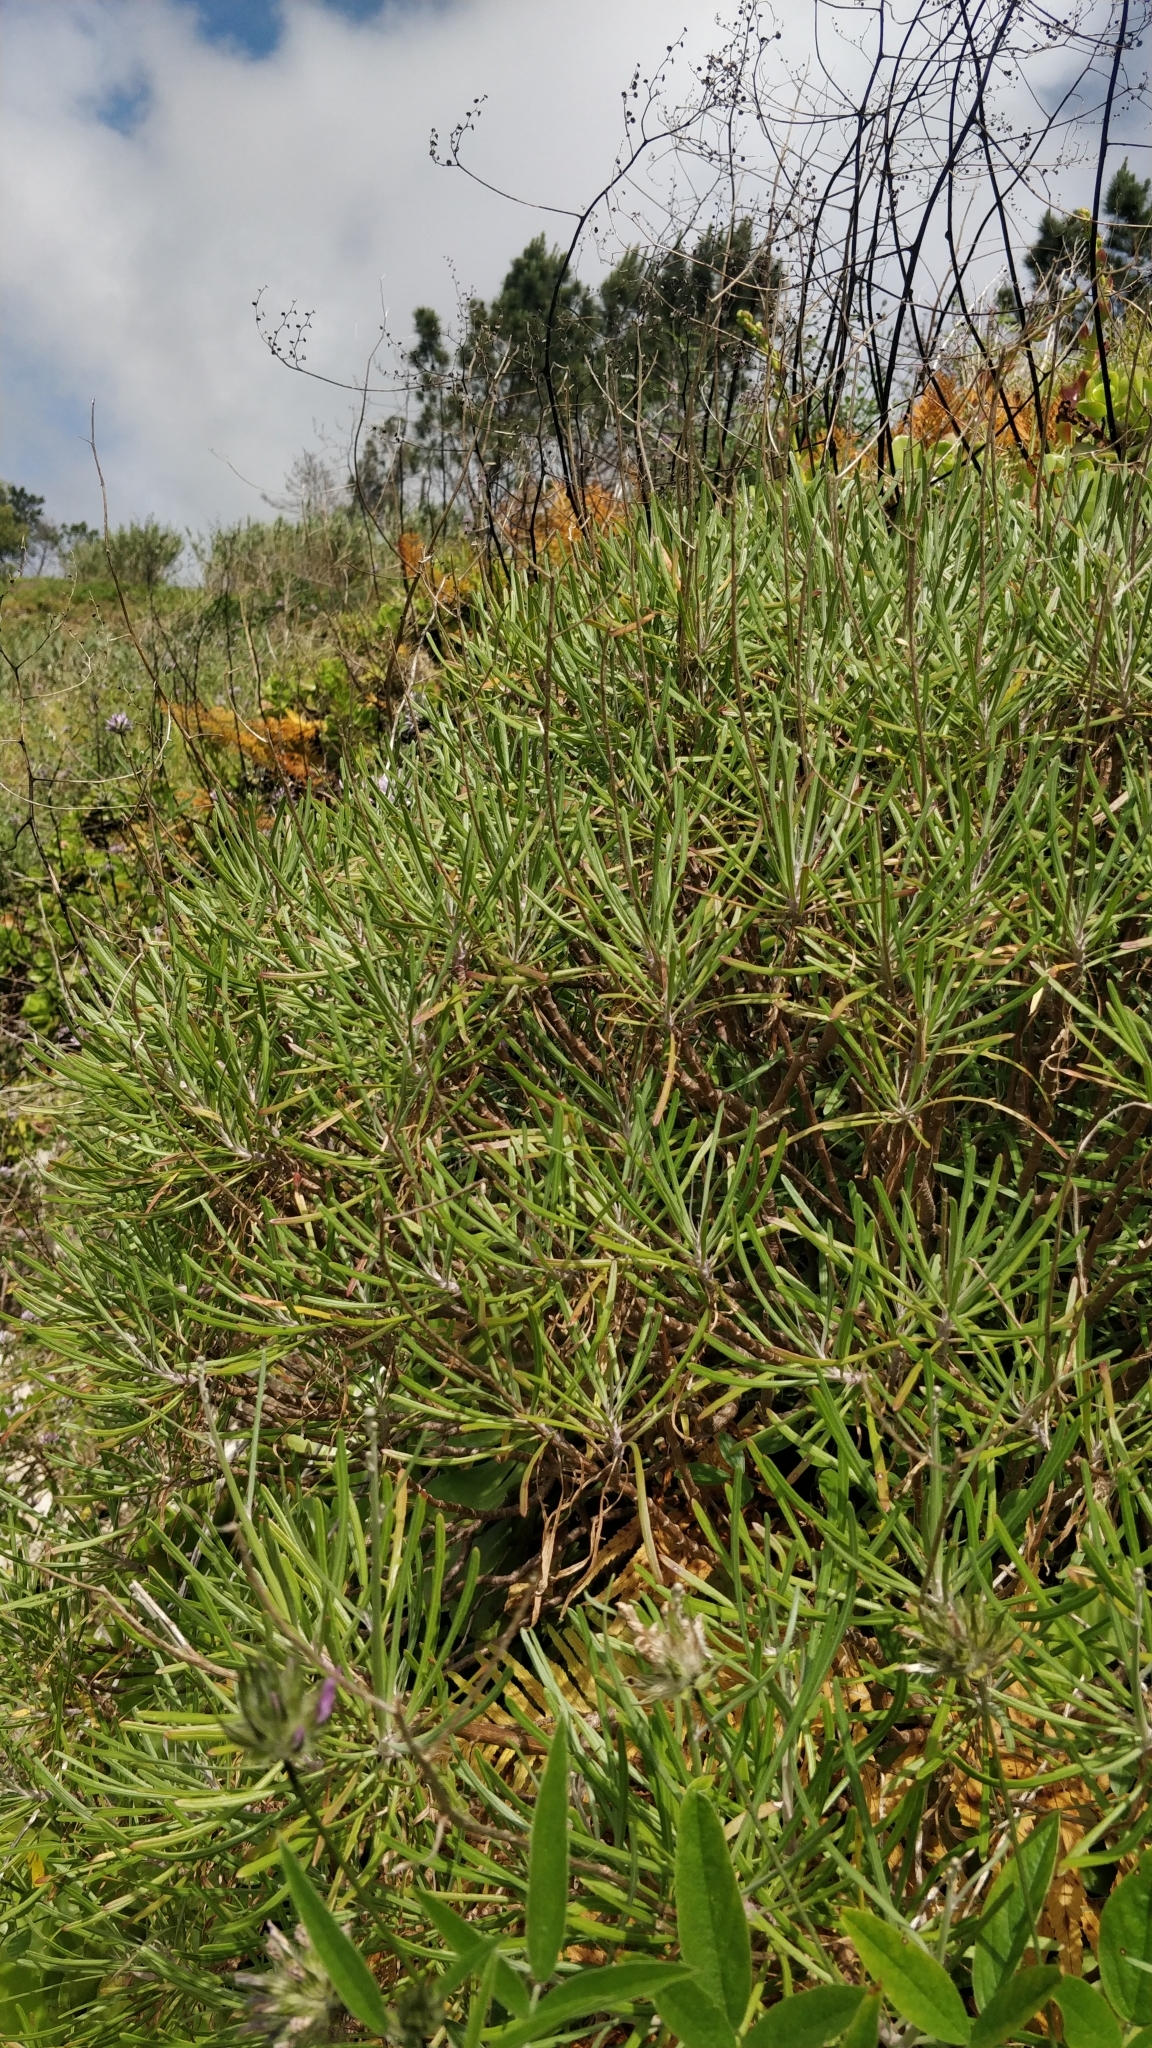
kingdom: Plantae
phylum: Tracheophyta
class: Magnoliopsida
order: Lamiales
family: Plantaginaceae
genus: Plantago
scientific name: Plantago arborescens
